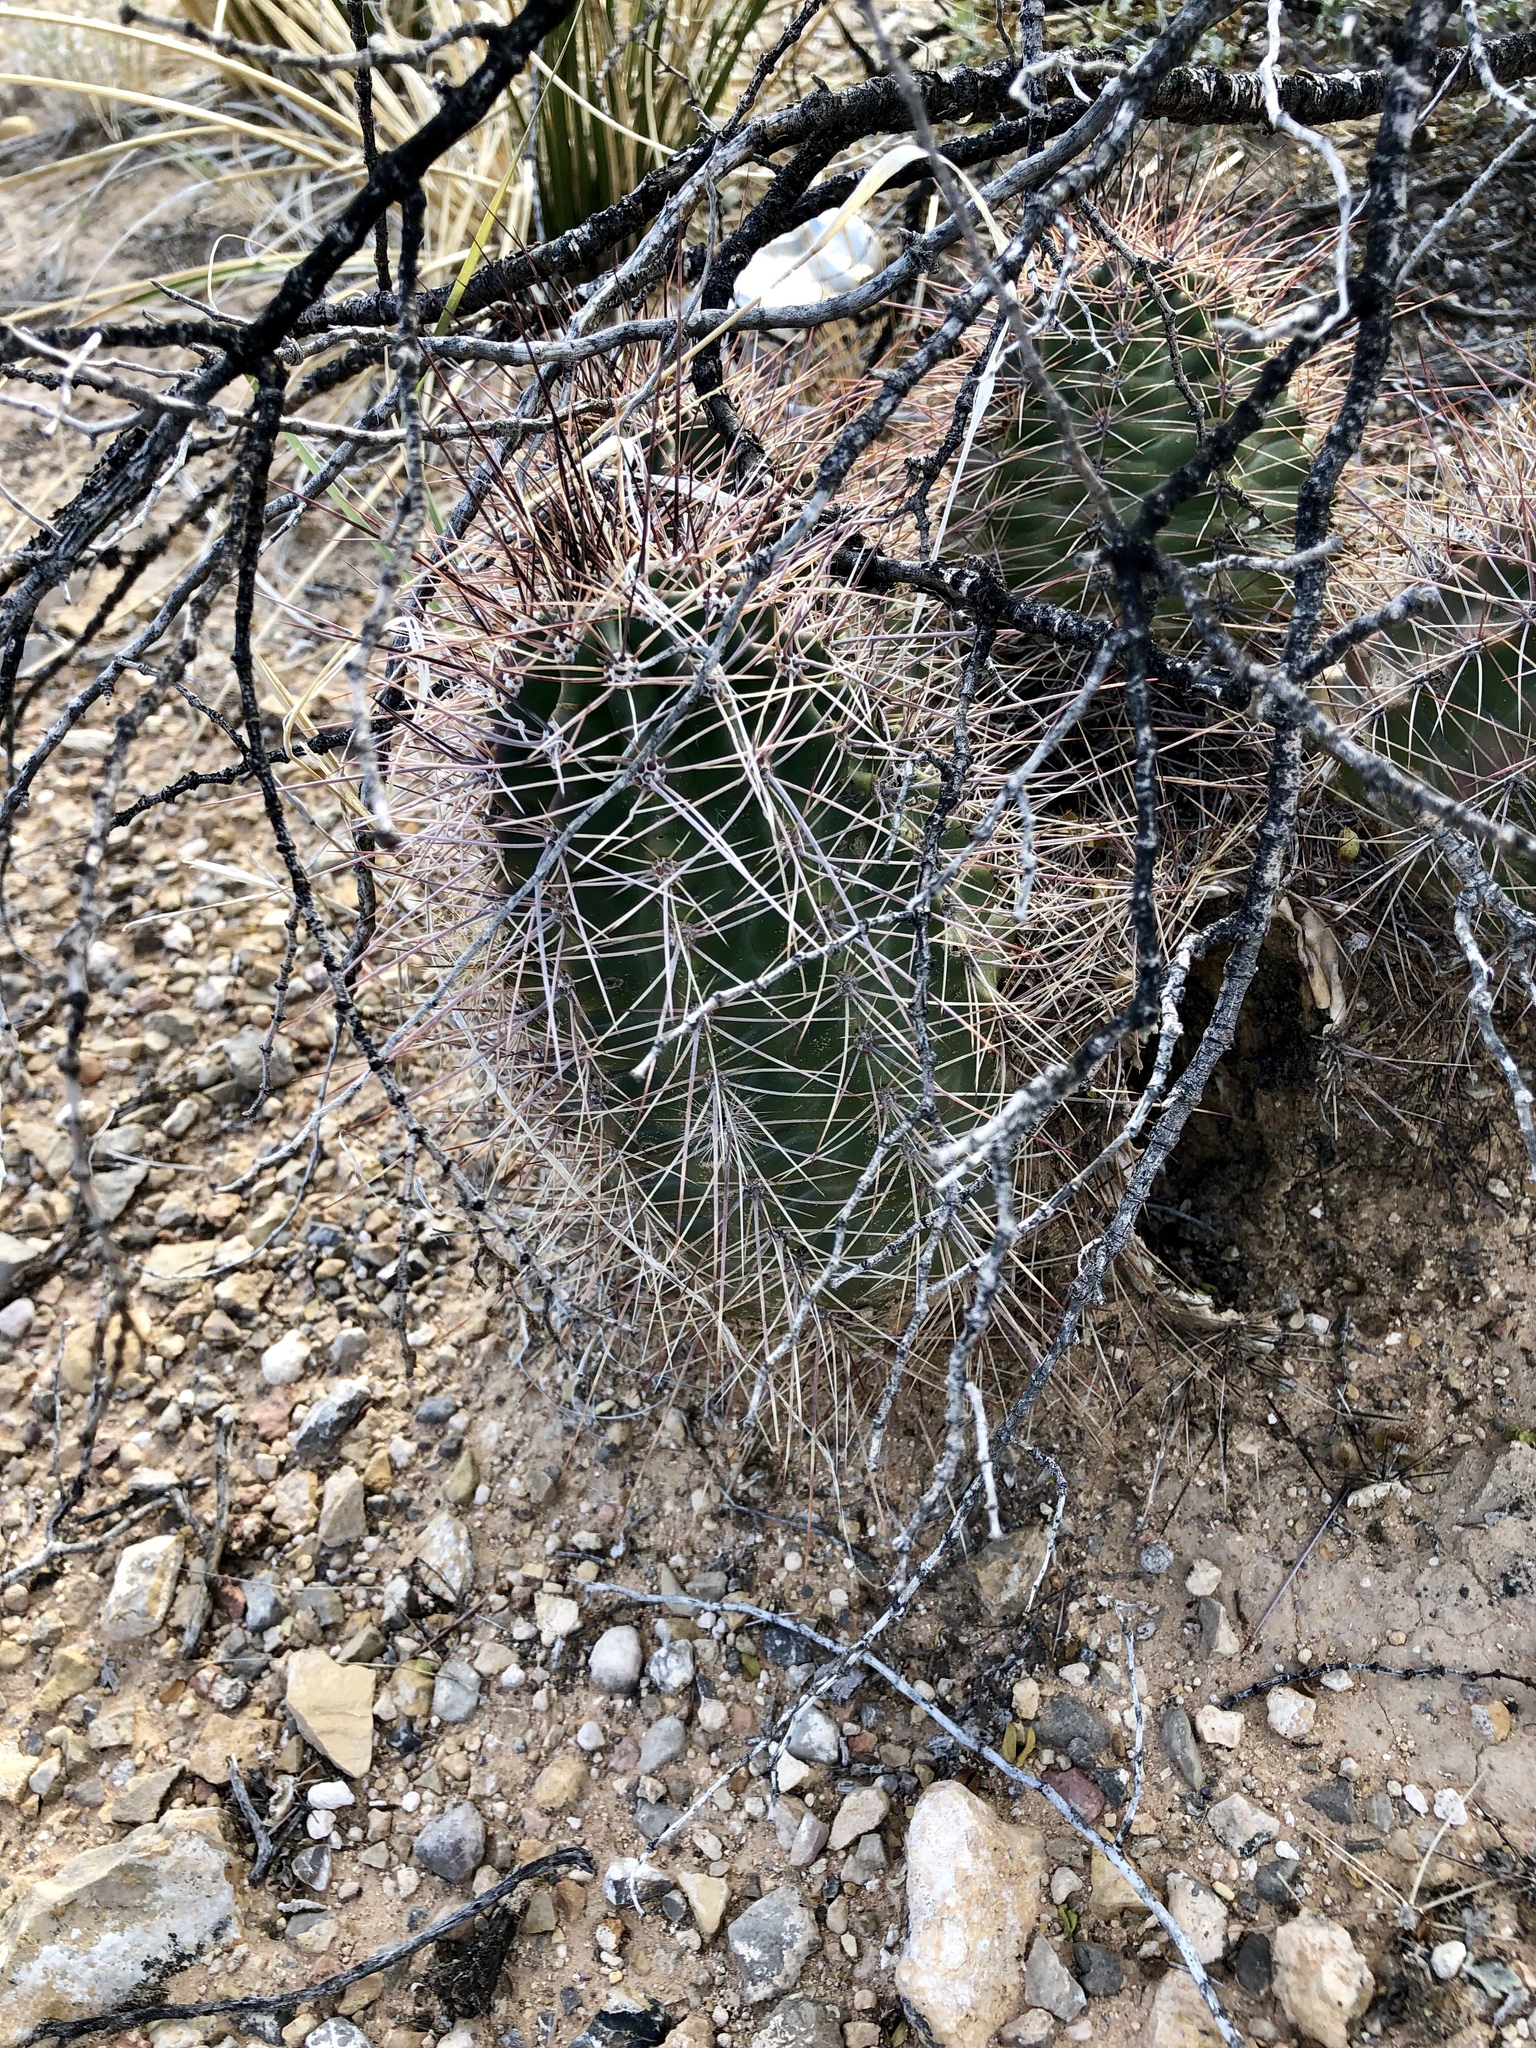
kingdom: Plantae
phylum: Tracheophyta
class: Magnoliopsida
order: Caryophyllales
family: Cactaceae
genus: Echinocereus
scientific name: Echinocereus coccineus
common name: Scarlet hedgehog cactus
